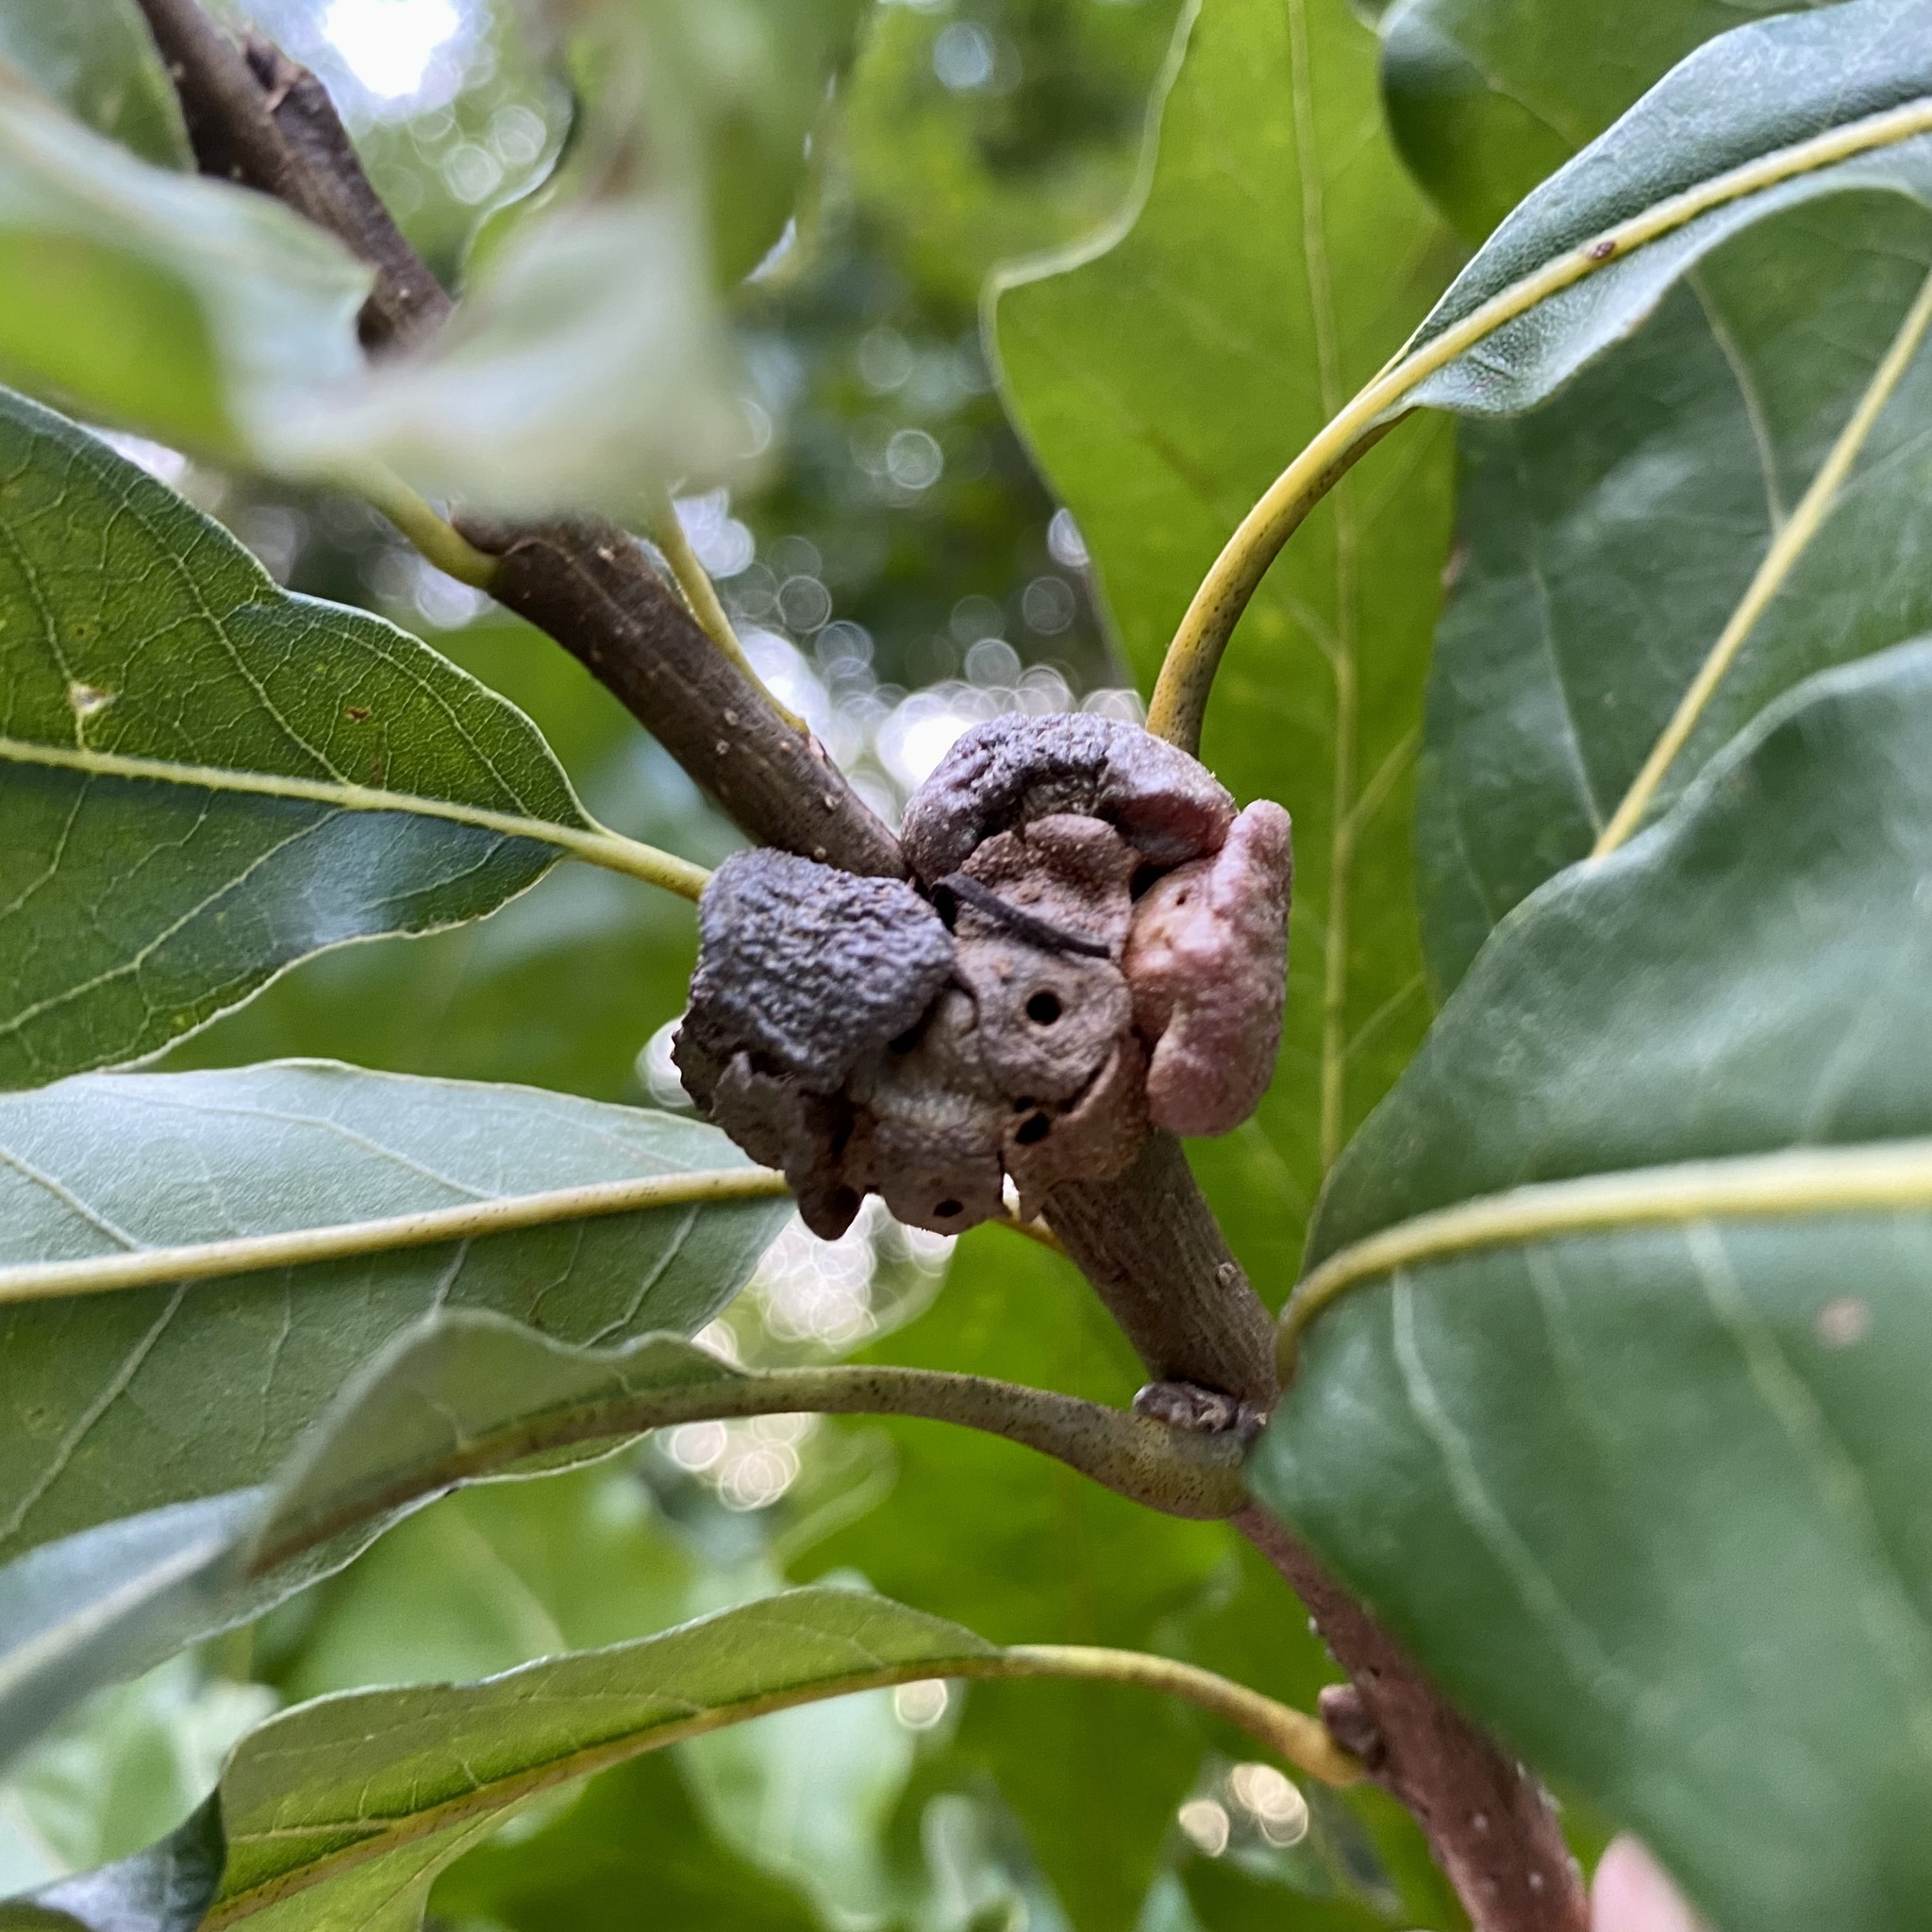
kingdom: Animalia
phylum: Arthropoda
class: Insecta
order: Hymenoptera
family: Cynipidae
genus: Andricus
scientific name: Andricus
